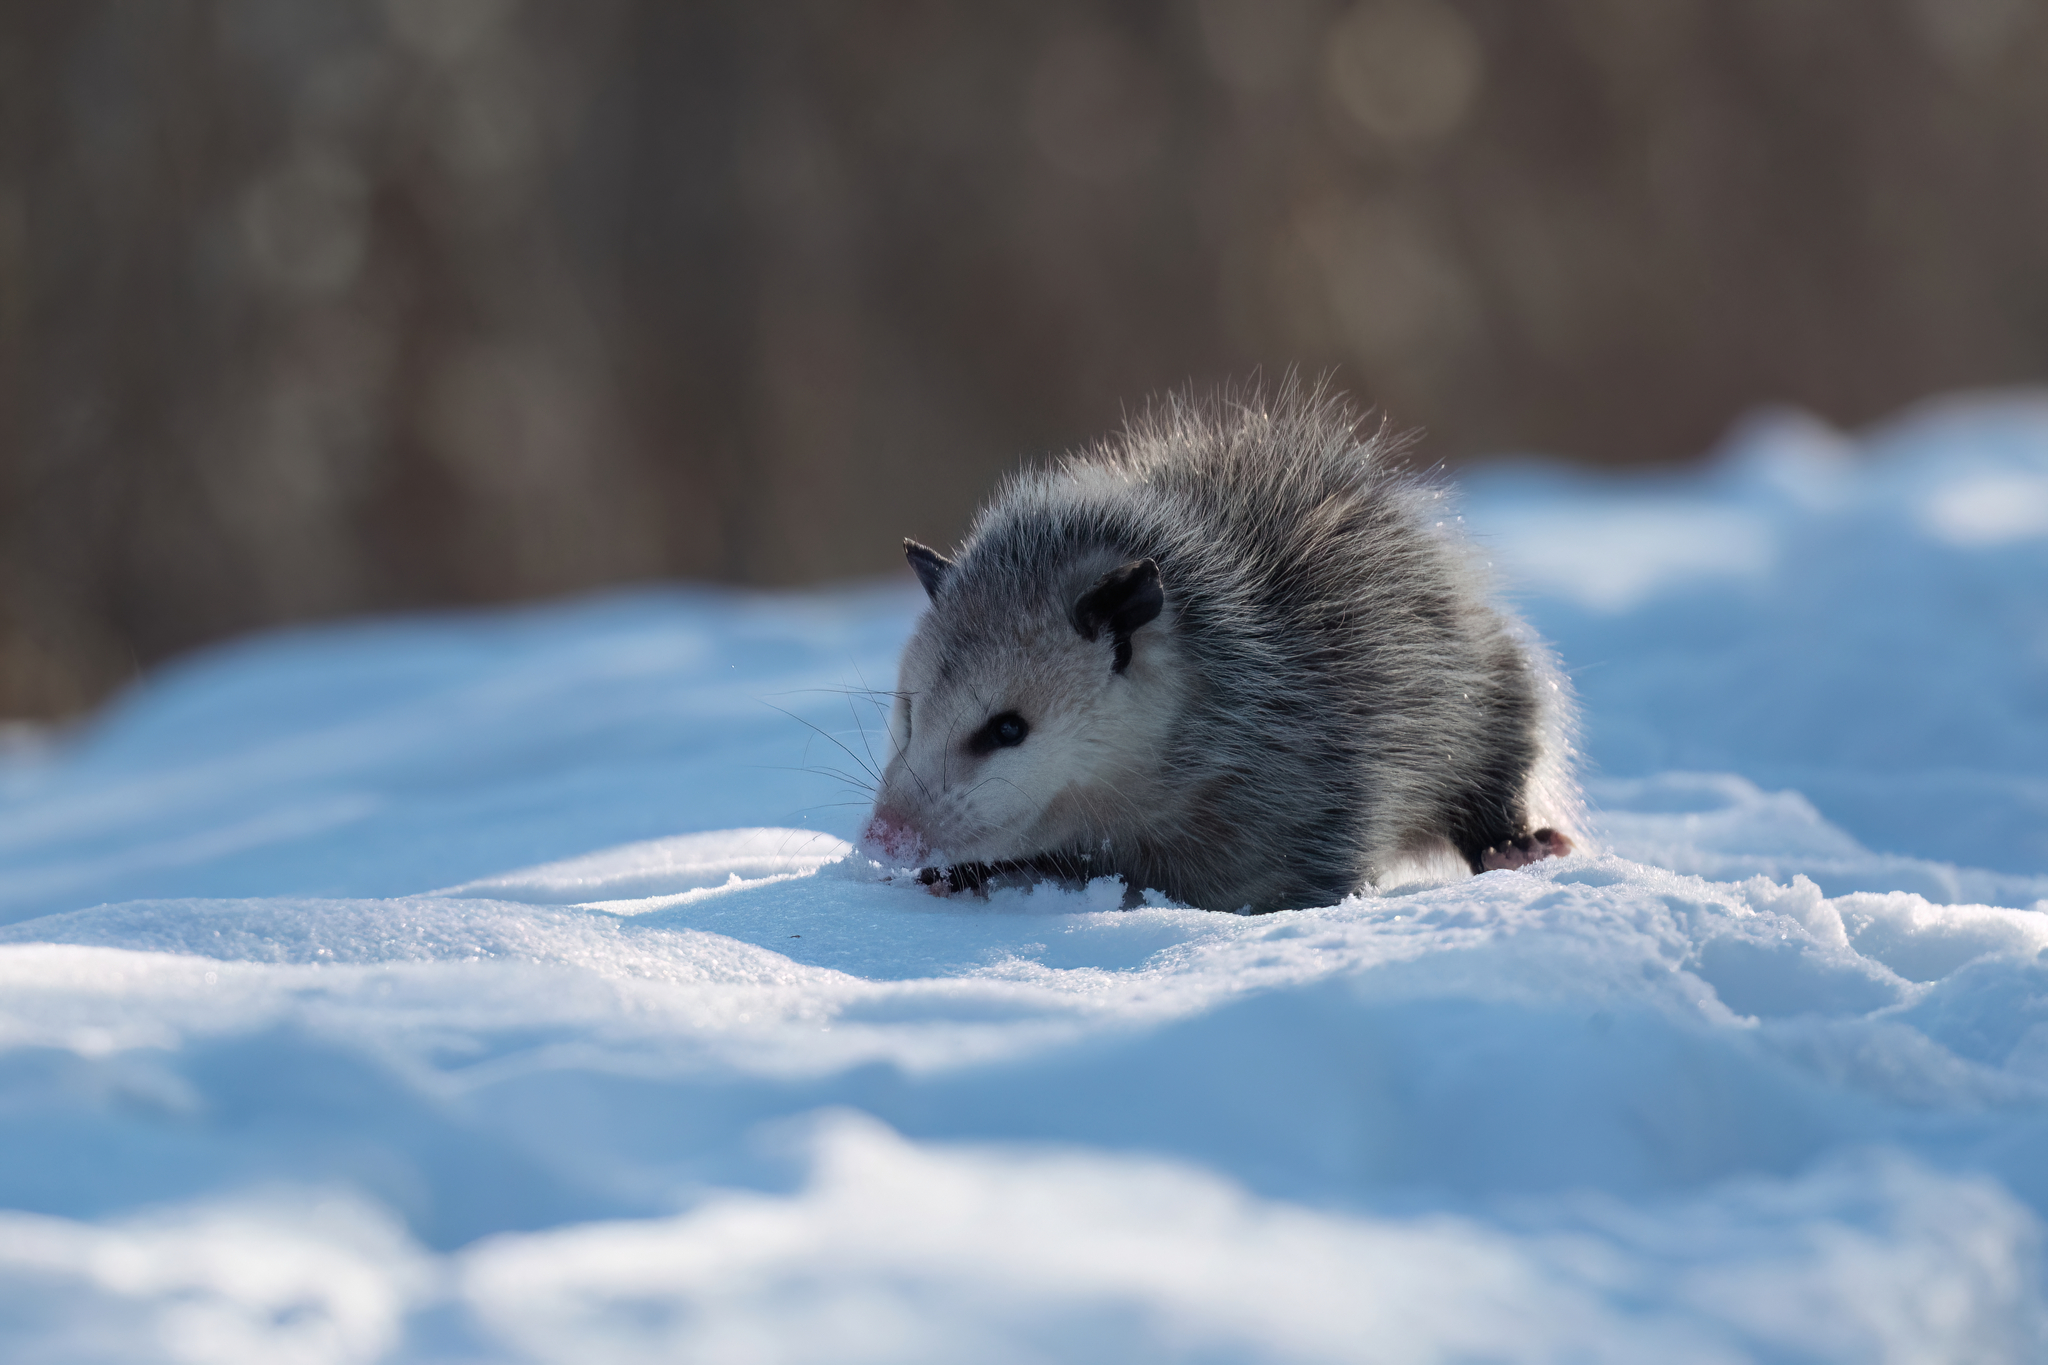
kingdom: Animalia
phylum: Chordata
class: Mammalia
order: Didelphimorphia
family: Didelphidae
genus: Didelphis
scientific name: Didelphis virginiana
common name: Virginia opossum
